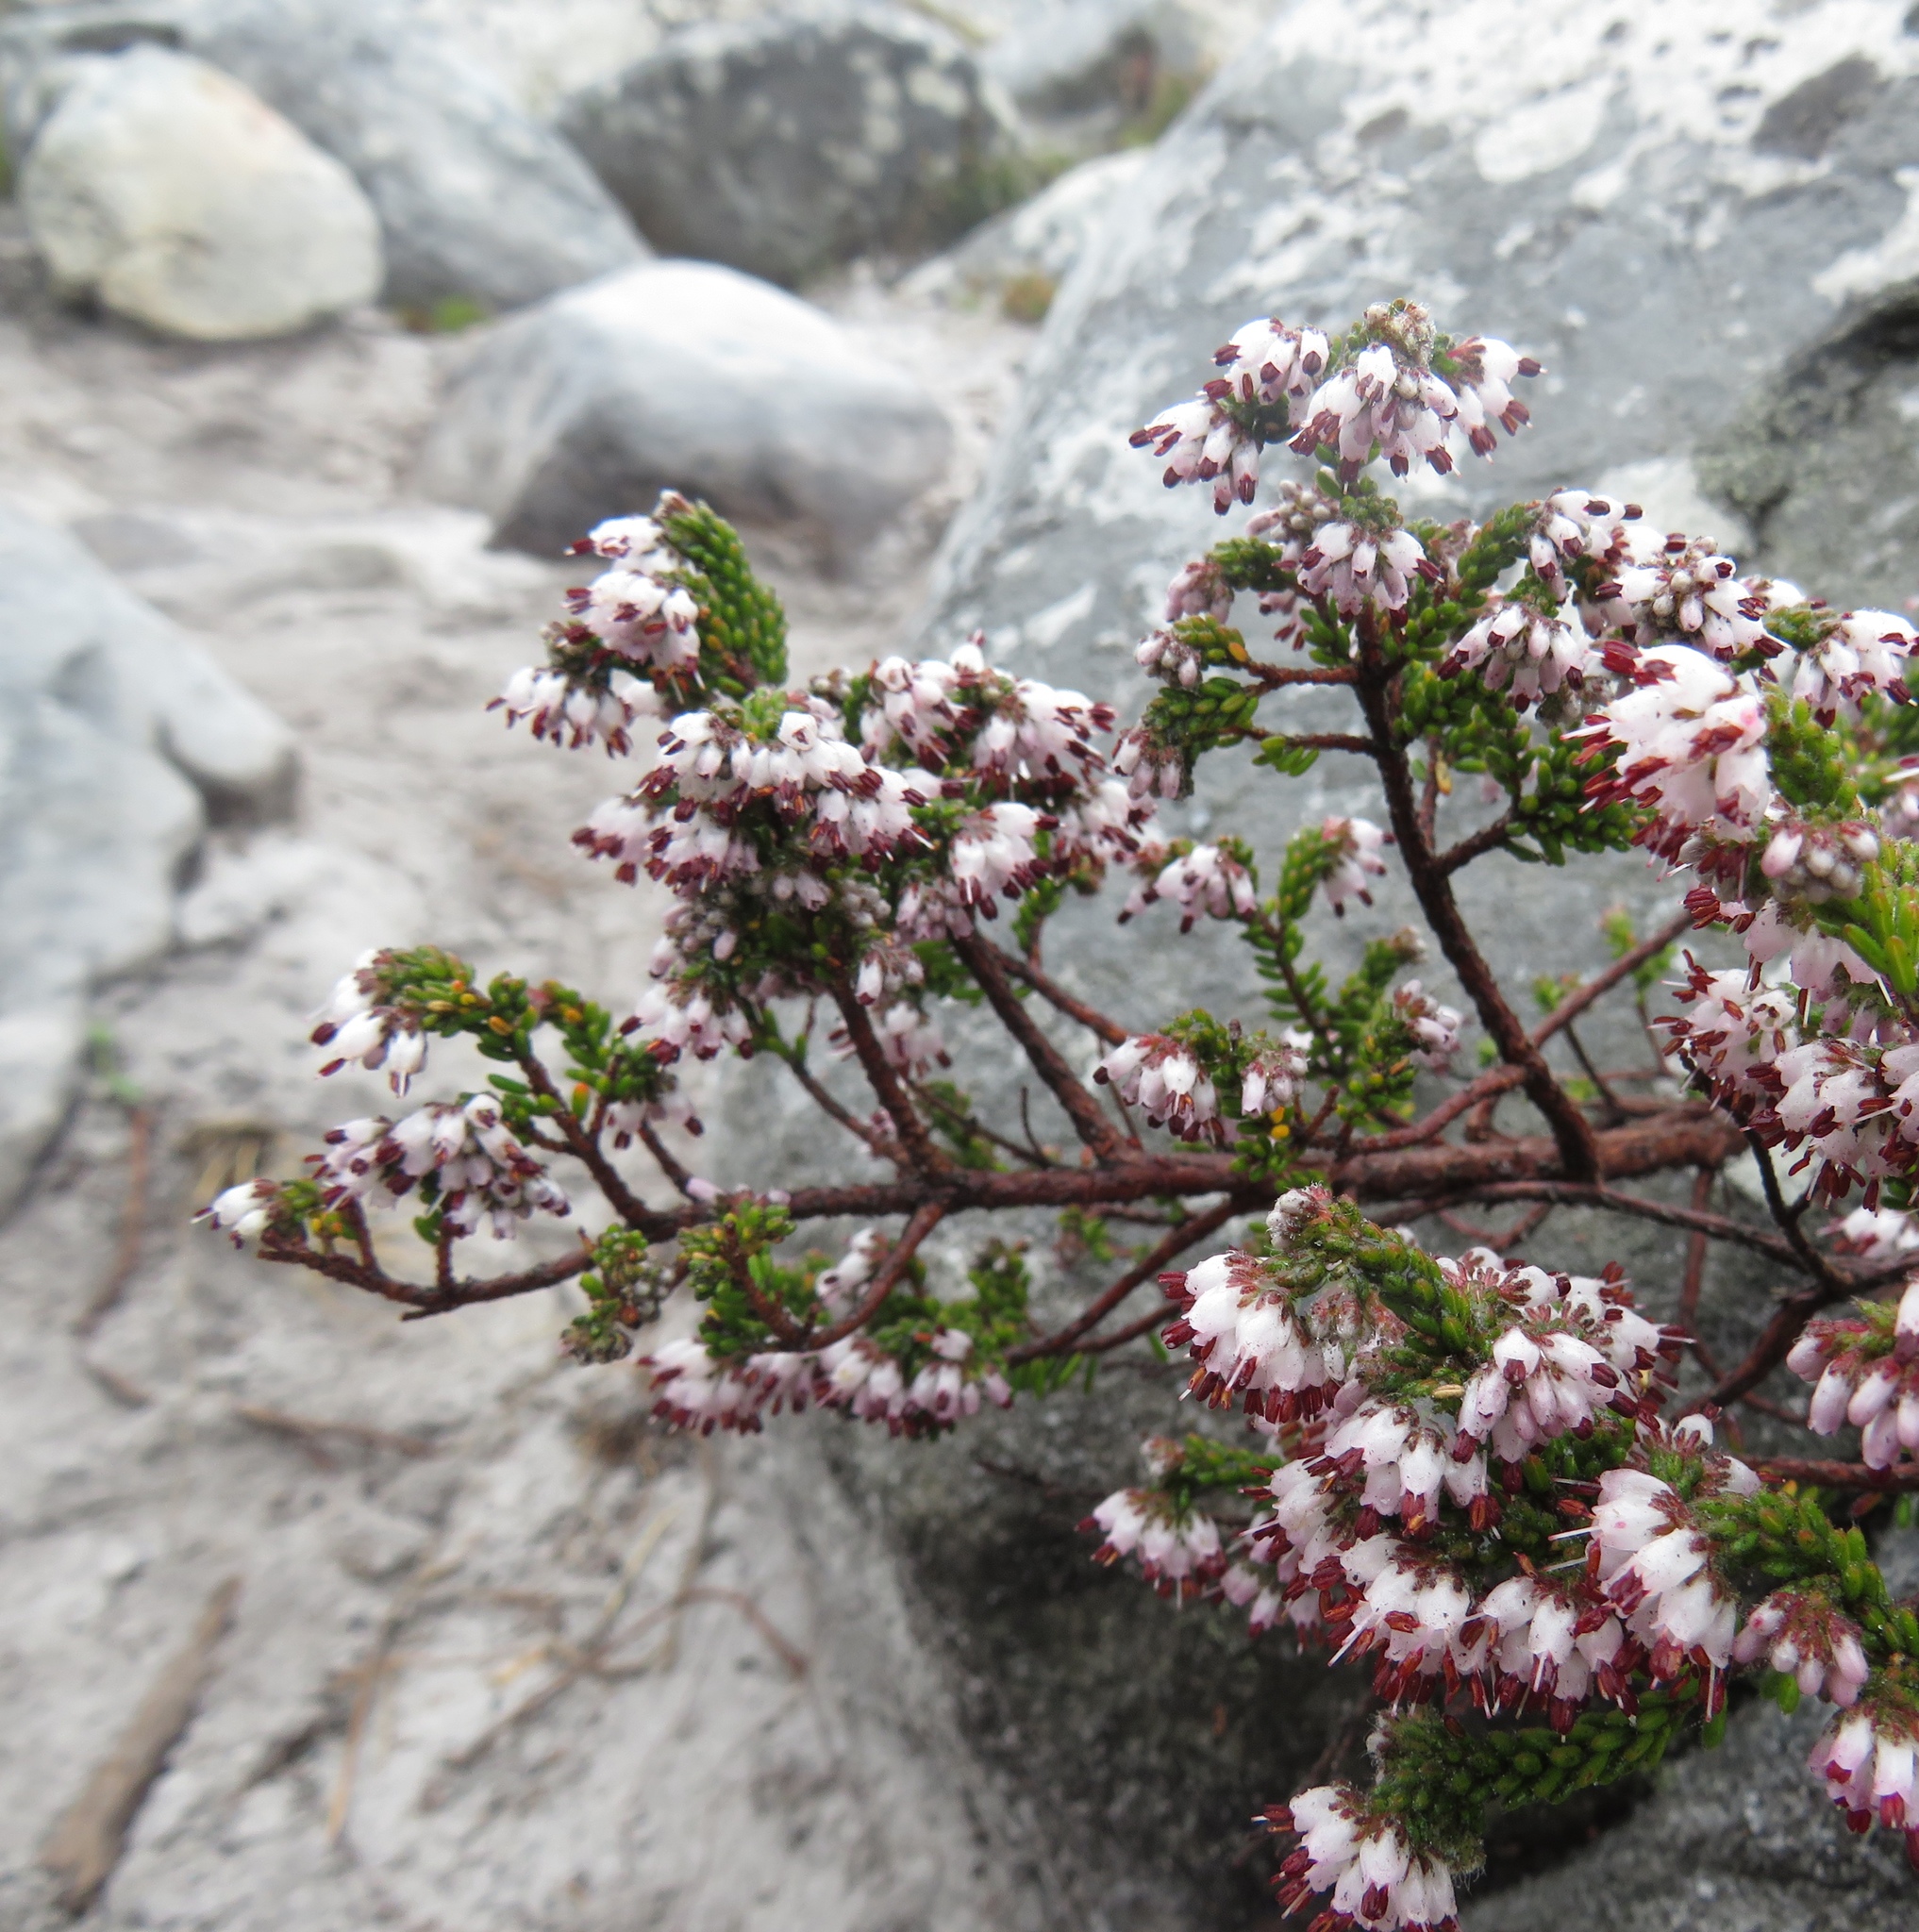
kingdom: Plantae
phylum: Tracheophyta
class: Magnoliopsida
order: Ericales
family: Ericaceae
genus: Erica
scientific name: Erica ericoides
